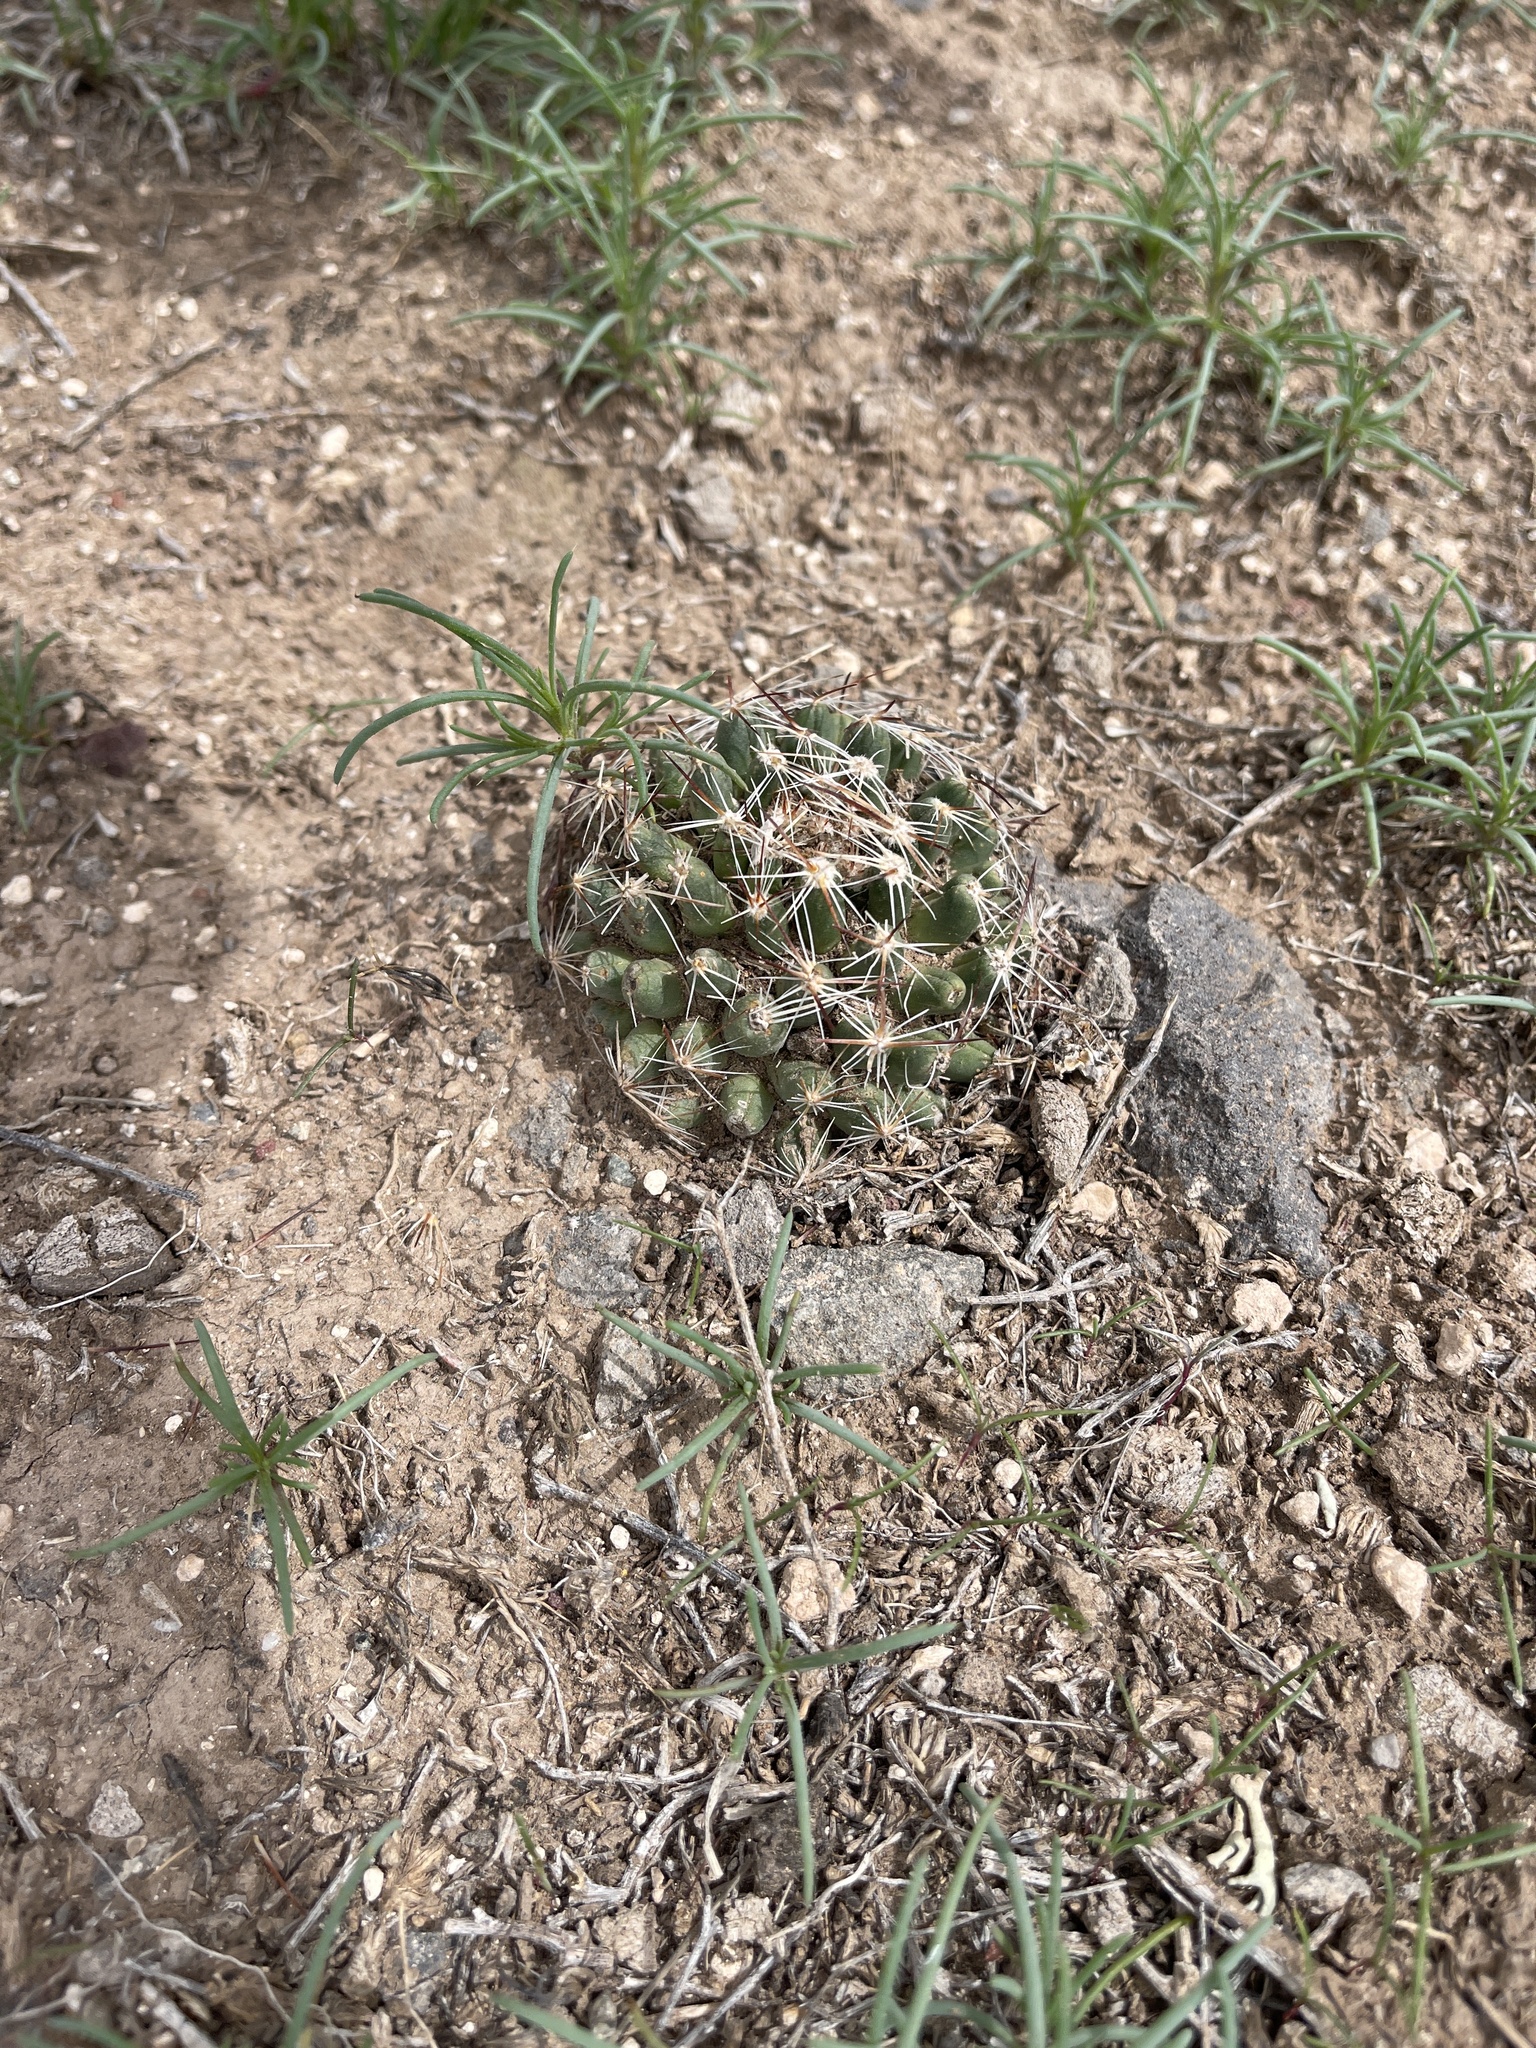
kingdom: Plantae
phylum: Tracheophyta
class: Magnoliopsida
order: Caryophyllales
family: Cactaceae
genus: Pelecyphora
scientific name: Pelecyphora vivipara
